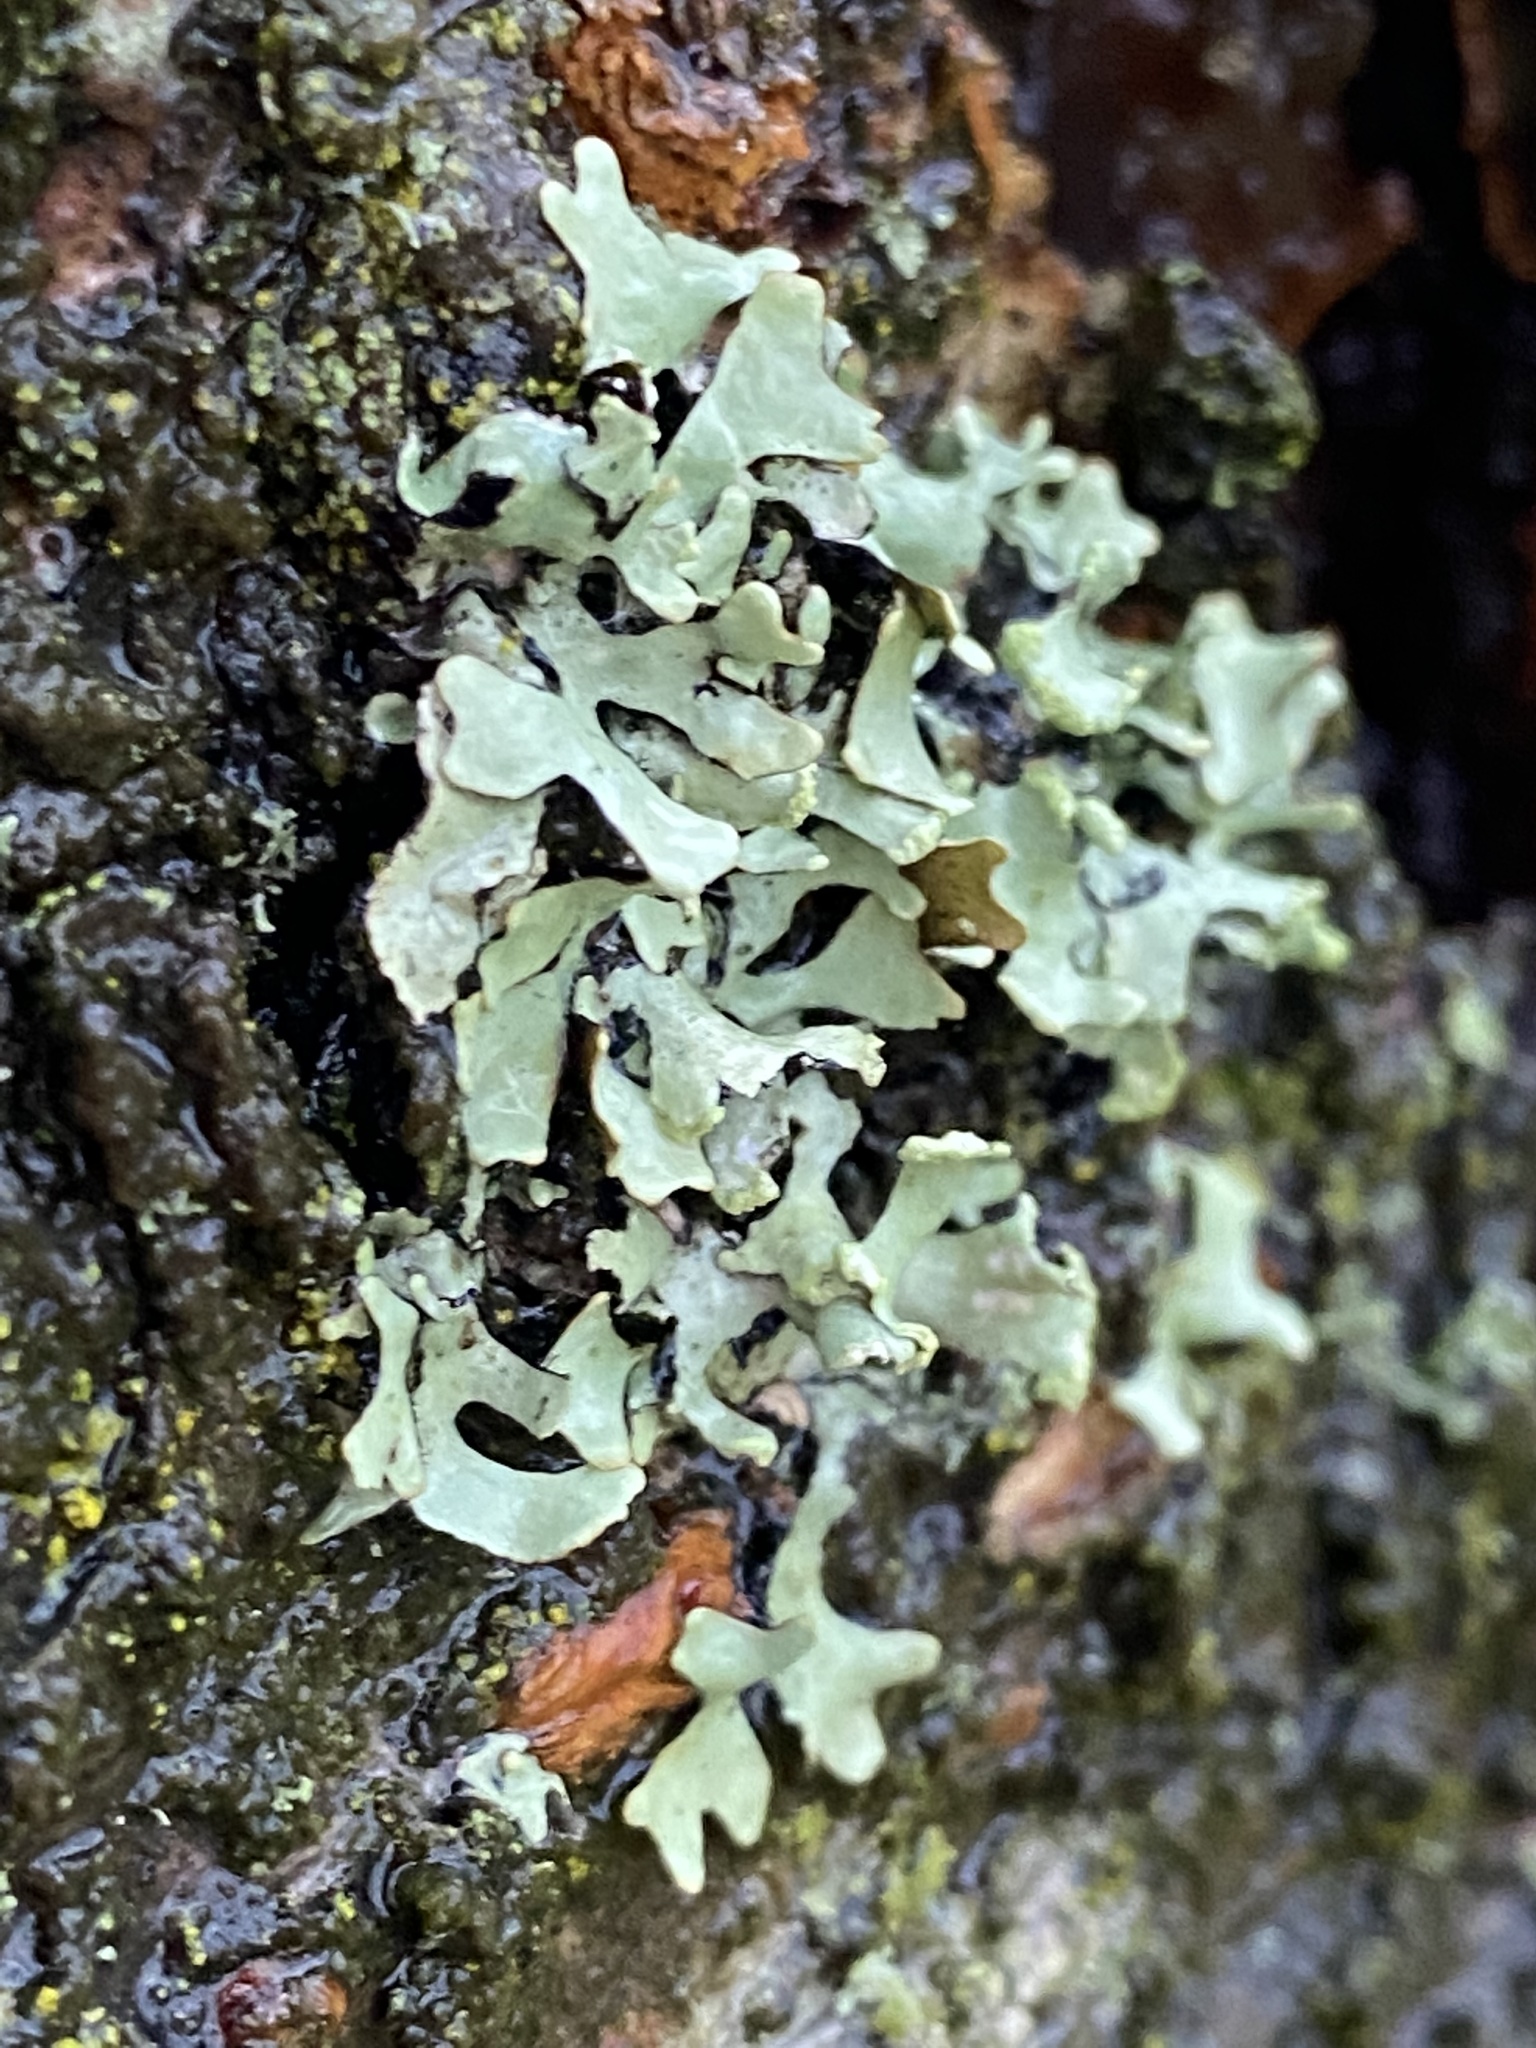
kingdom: Fungi
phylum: Ascomycota
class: Lecanoromycetes
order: Lecanorales
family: Parmeliaceae
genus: Hypotrachyna
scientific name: Hypotrachyna sinuosa
